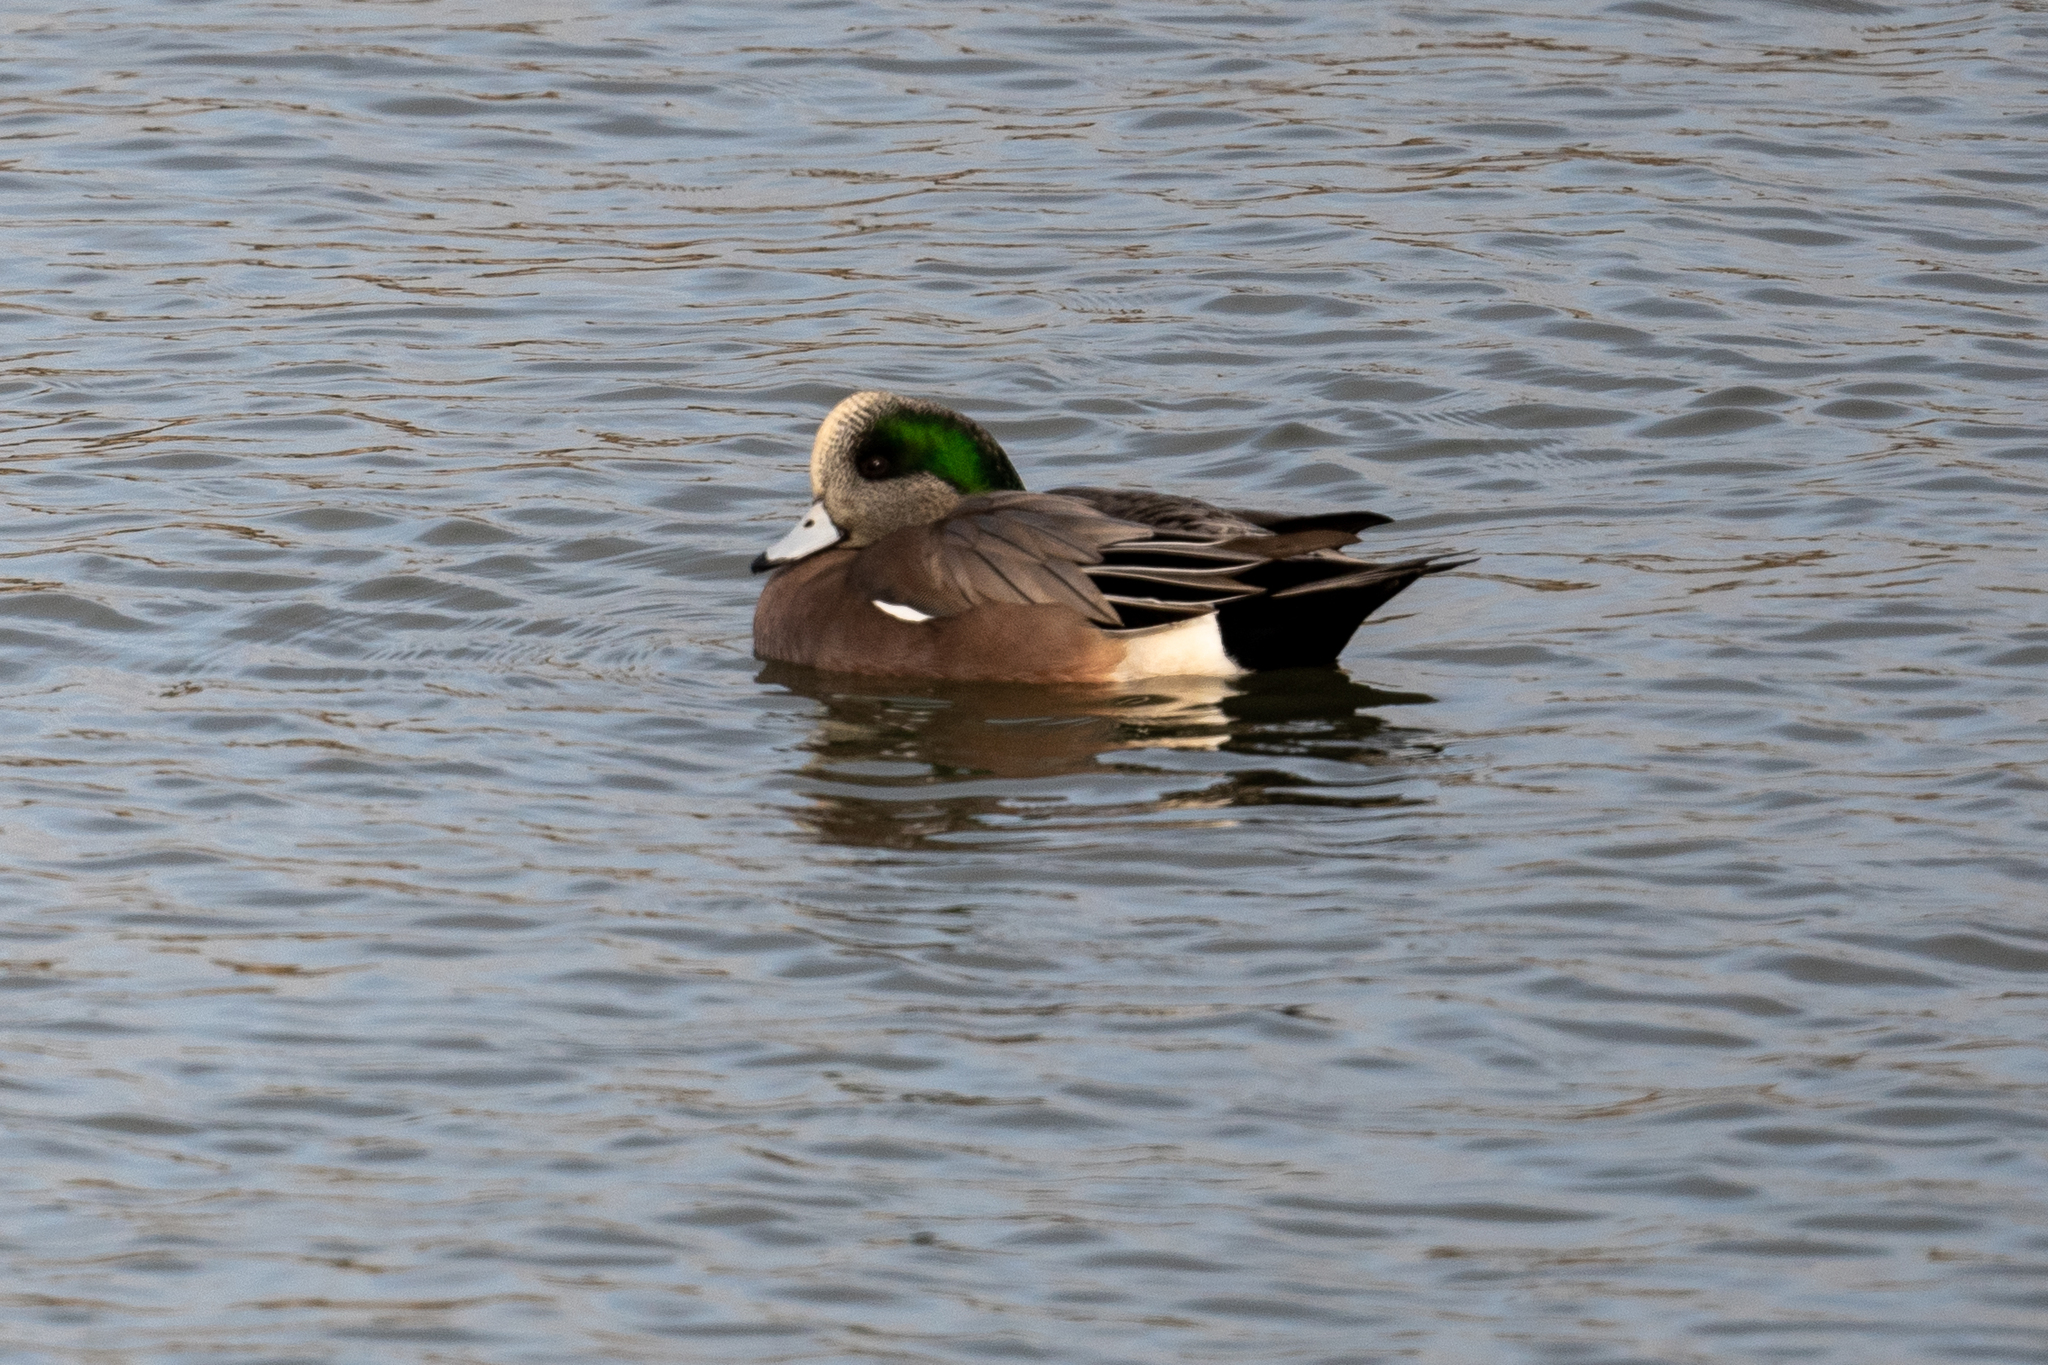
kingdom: Animalia
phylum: Chordata
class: Aves
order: Anseriformes
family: Anatidae
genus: Mareca
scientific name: Mareca americana
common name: American wigeon
